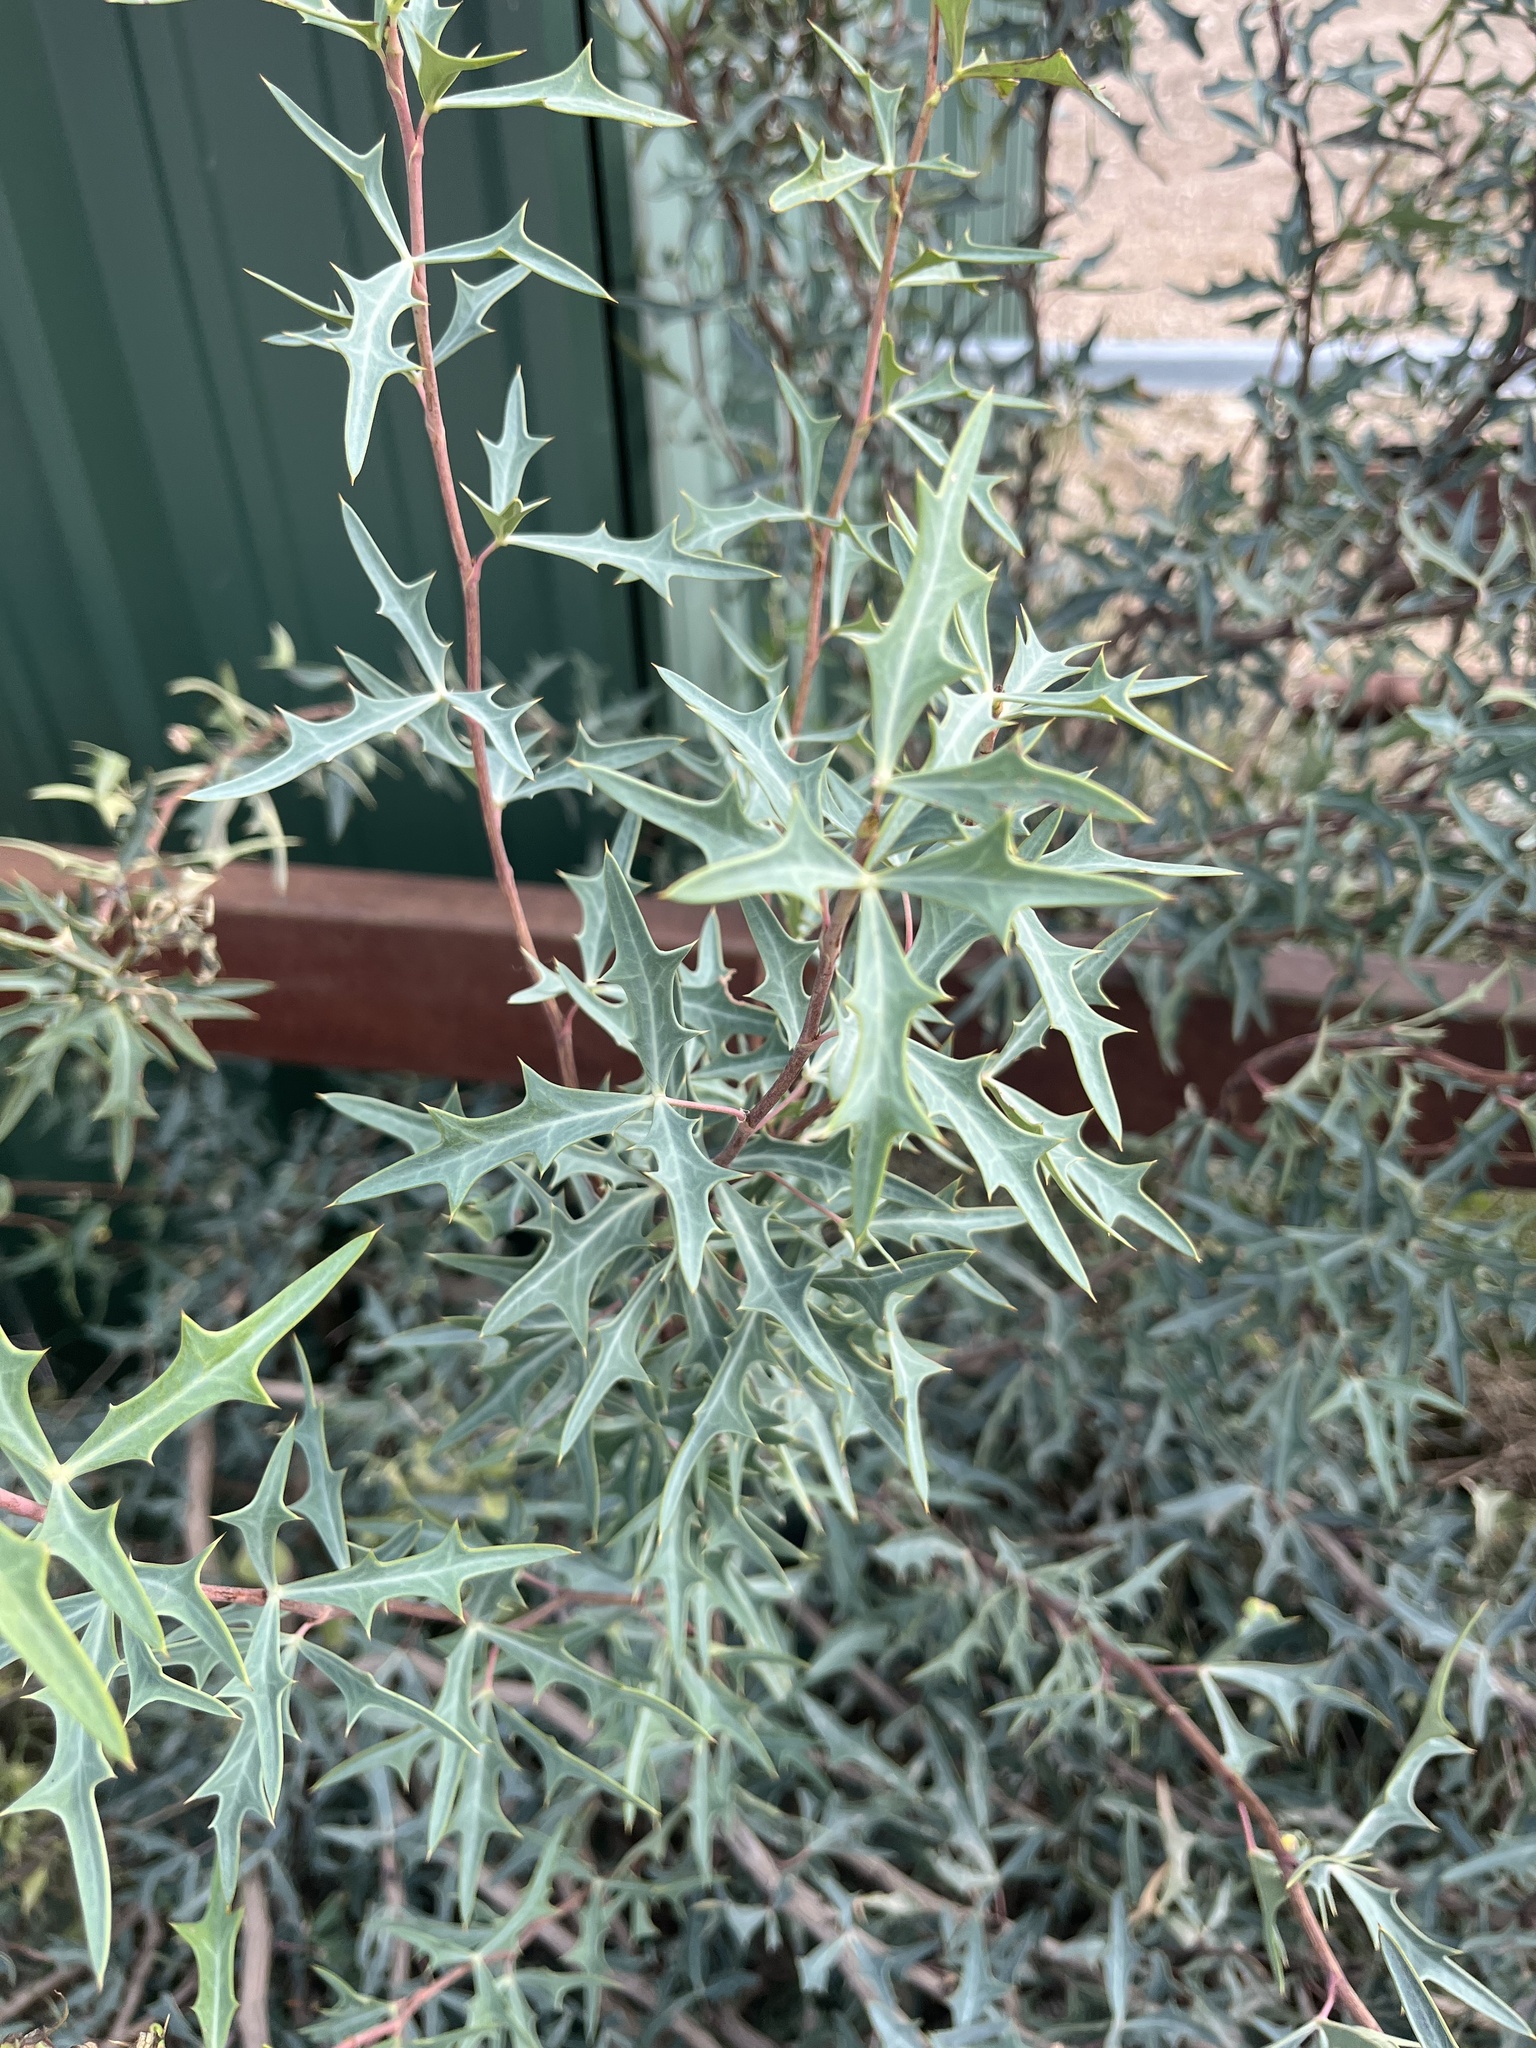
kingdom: Plantae
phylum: Tracheophyta
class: Magnoliopsida
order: Ranunculales
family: Berberidaceae
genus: Alloberberis
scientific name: Alloberberis trifoliolata
